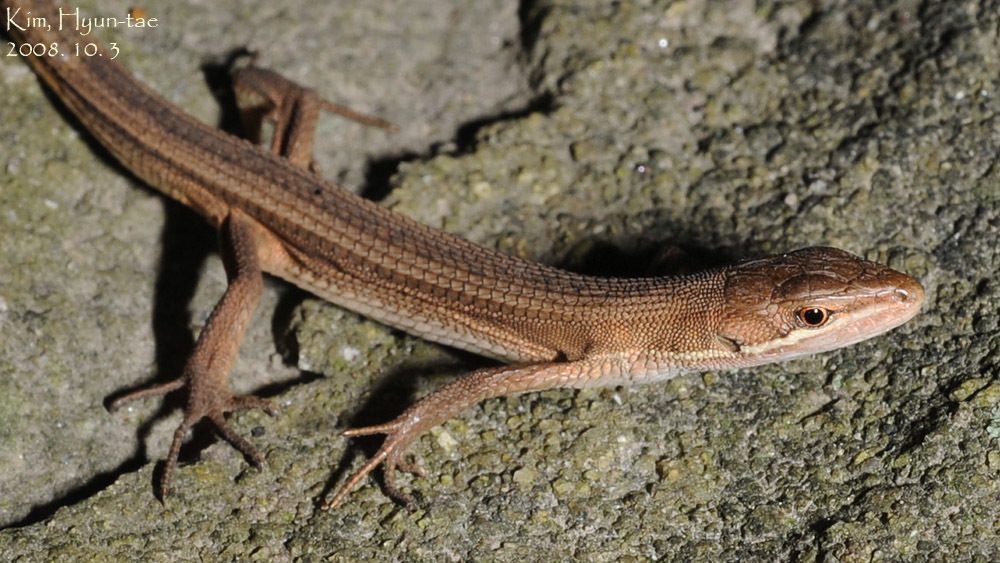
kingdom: Animalia
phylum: Chordata
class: Squamata
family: Lacertidae
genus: Takydromus
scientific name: Takydromus amurensis
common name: Amur grass lizard
